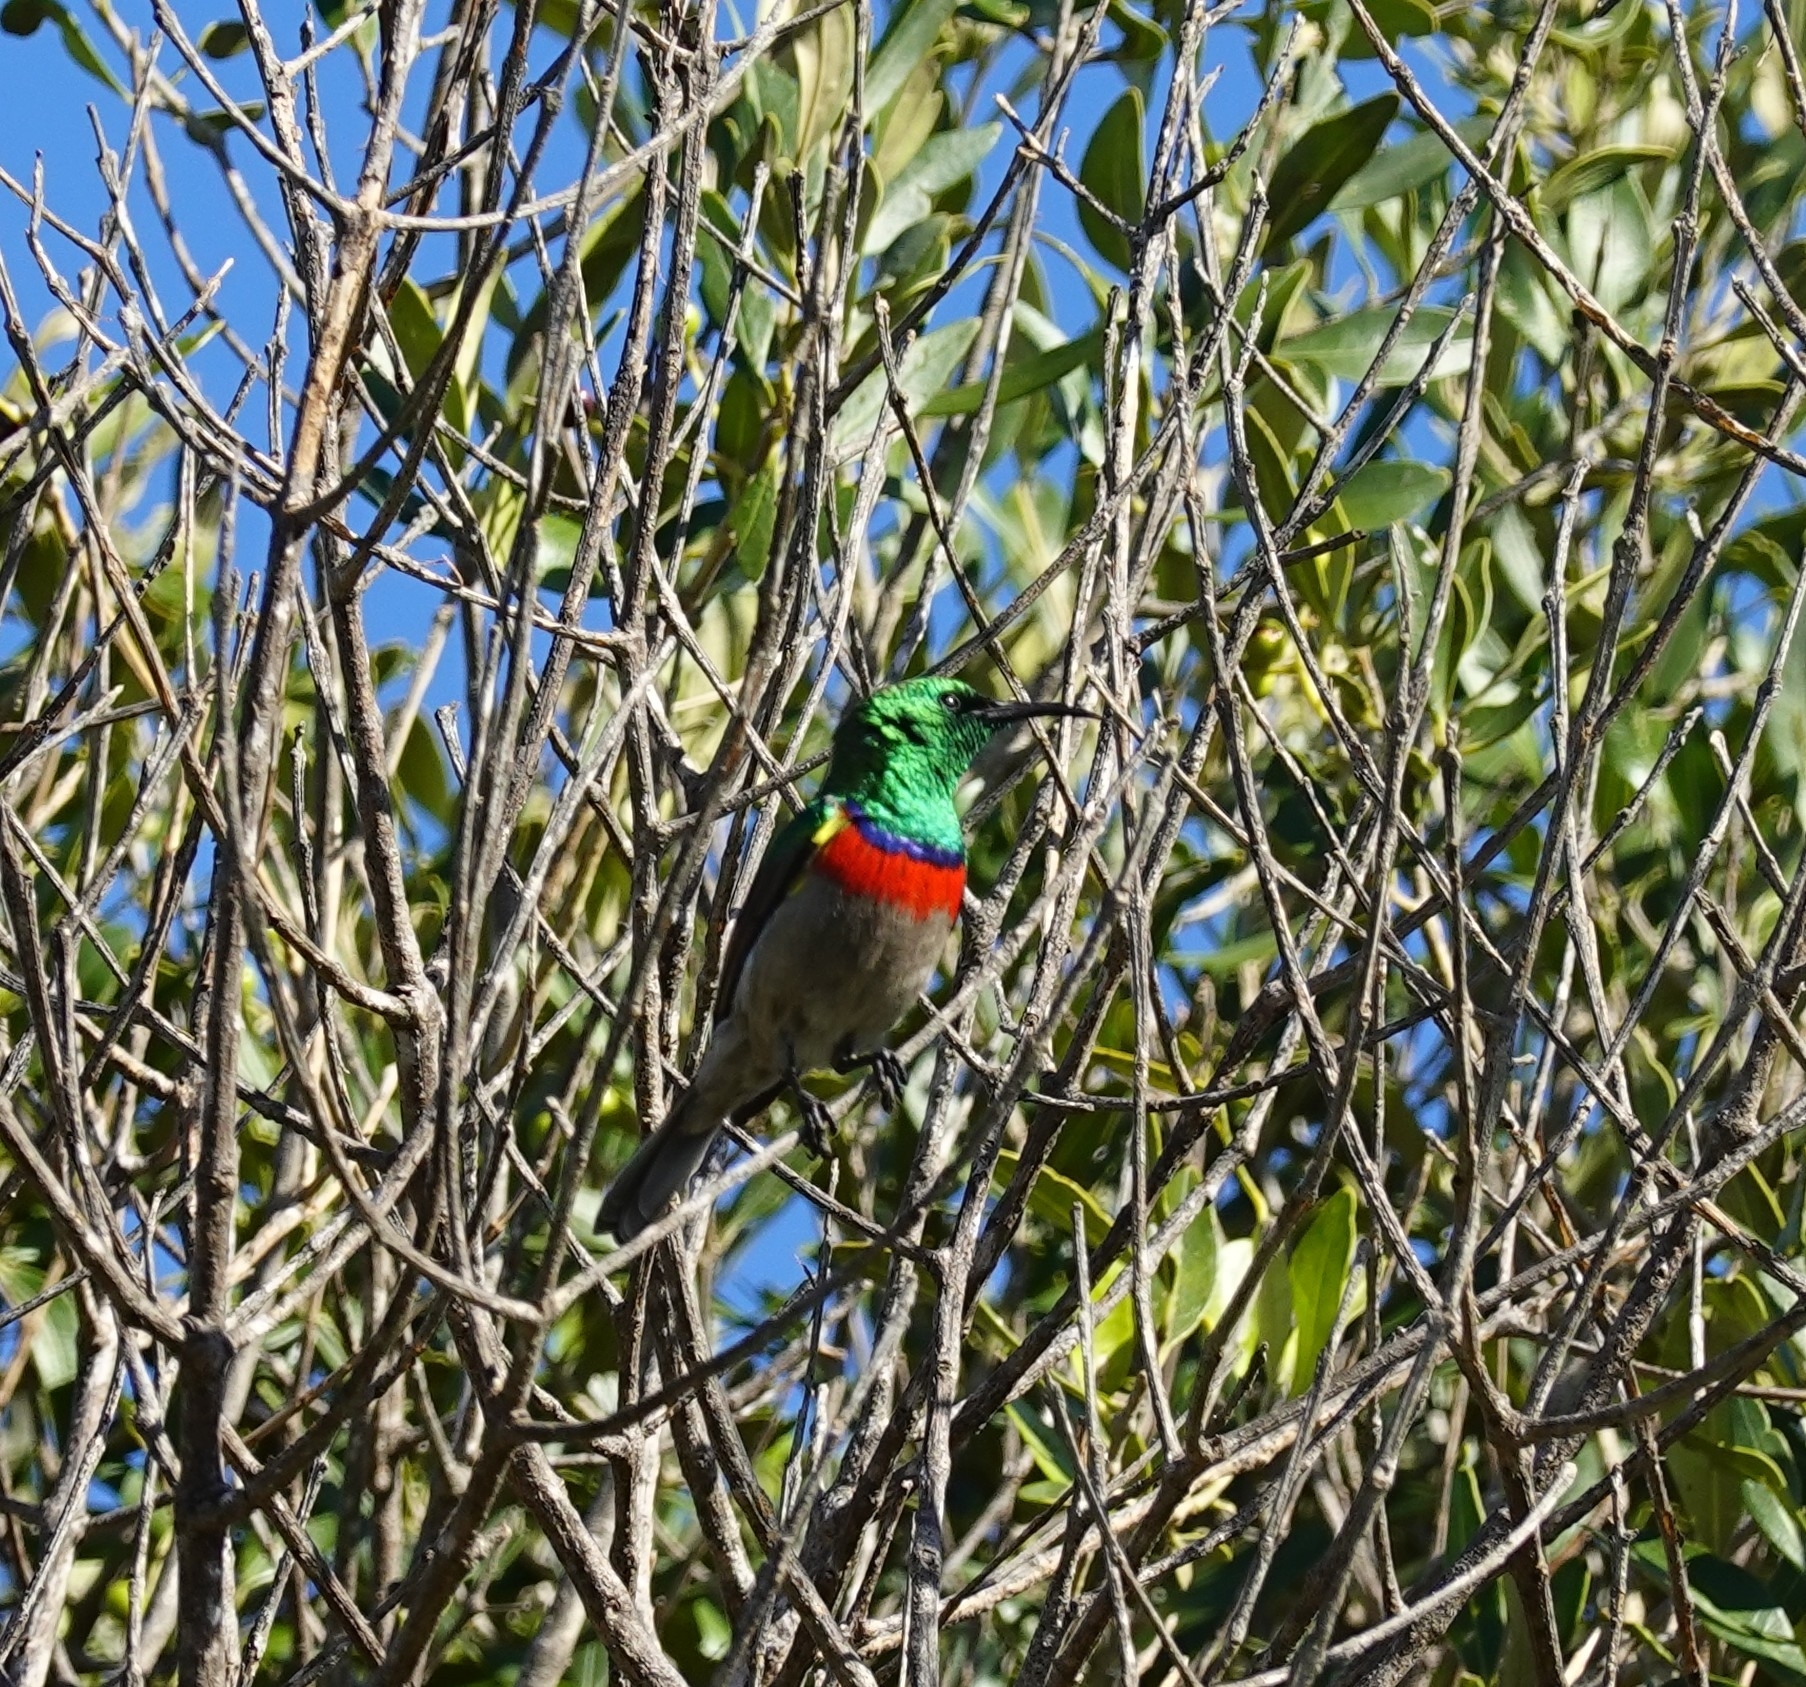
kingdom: Animalia
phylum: Chordata
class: Aves
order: Passeriformes
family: Nectariniidae
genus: Cinnyris
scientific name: Cinnyris chalybeus
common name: Southern double-collared sunbird
